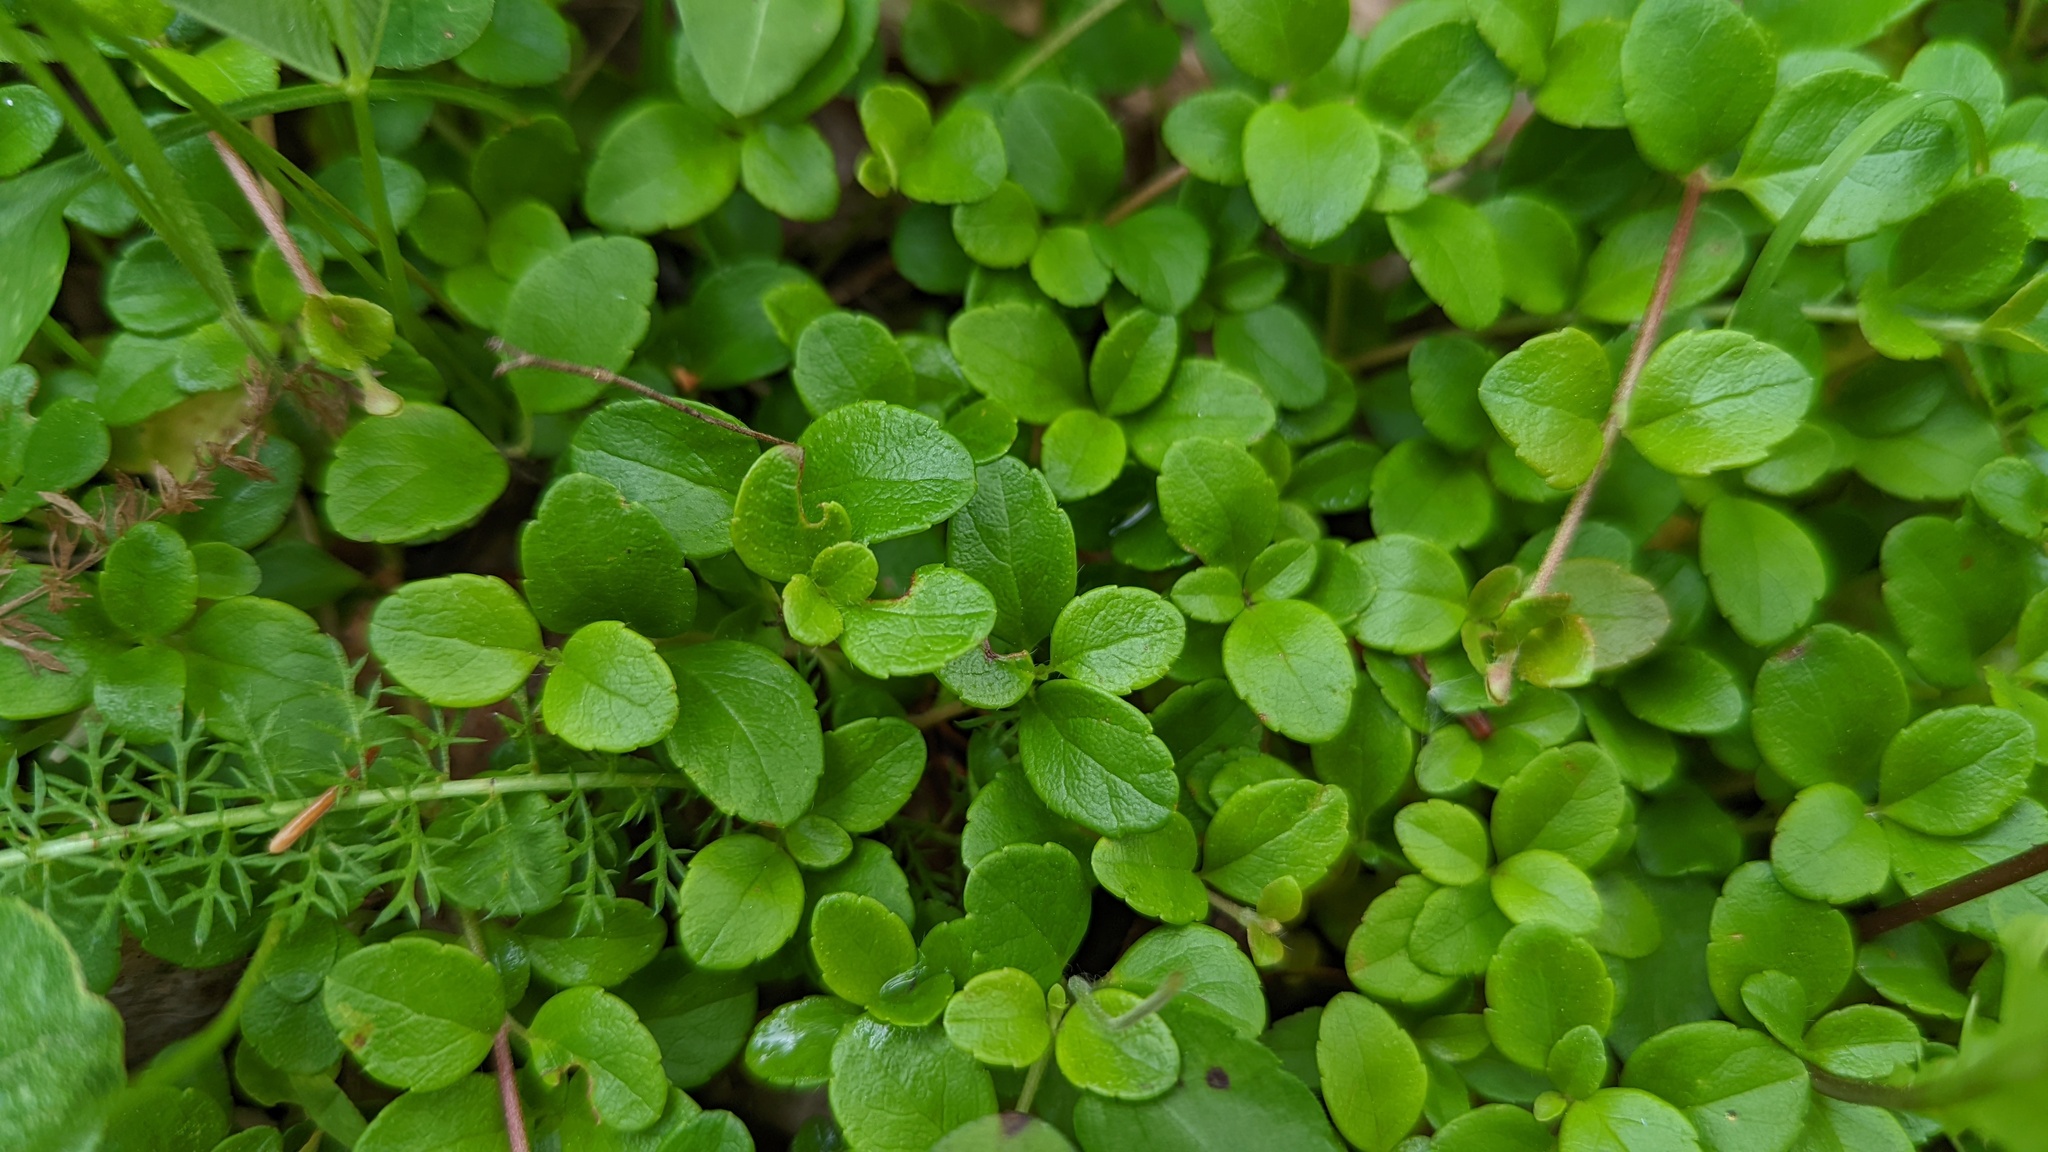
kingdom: Plantae
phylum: Tracheophyta
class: Magnoliopsida
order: Dipsacales
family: Caprifoliaceae
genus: Linnaea
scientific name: Linnaea borealis
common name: Twinflower
